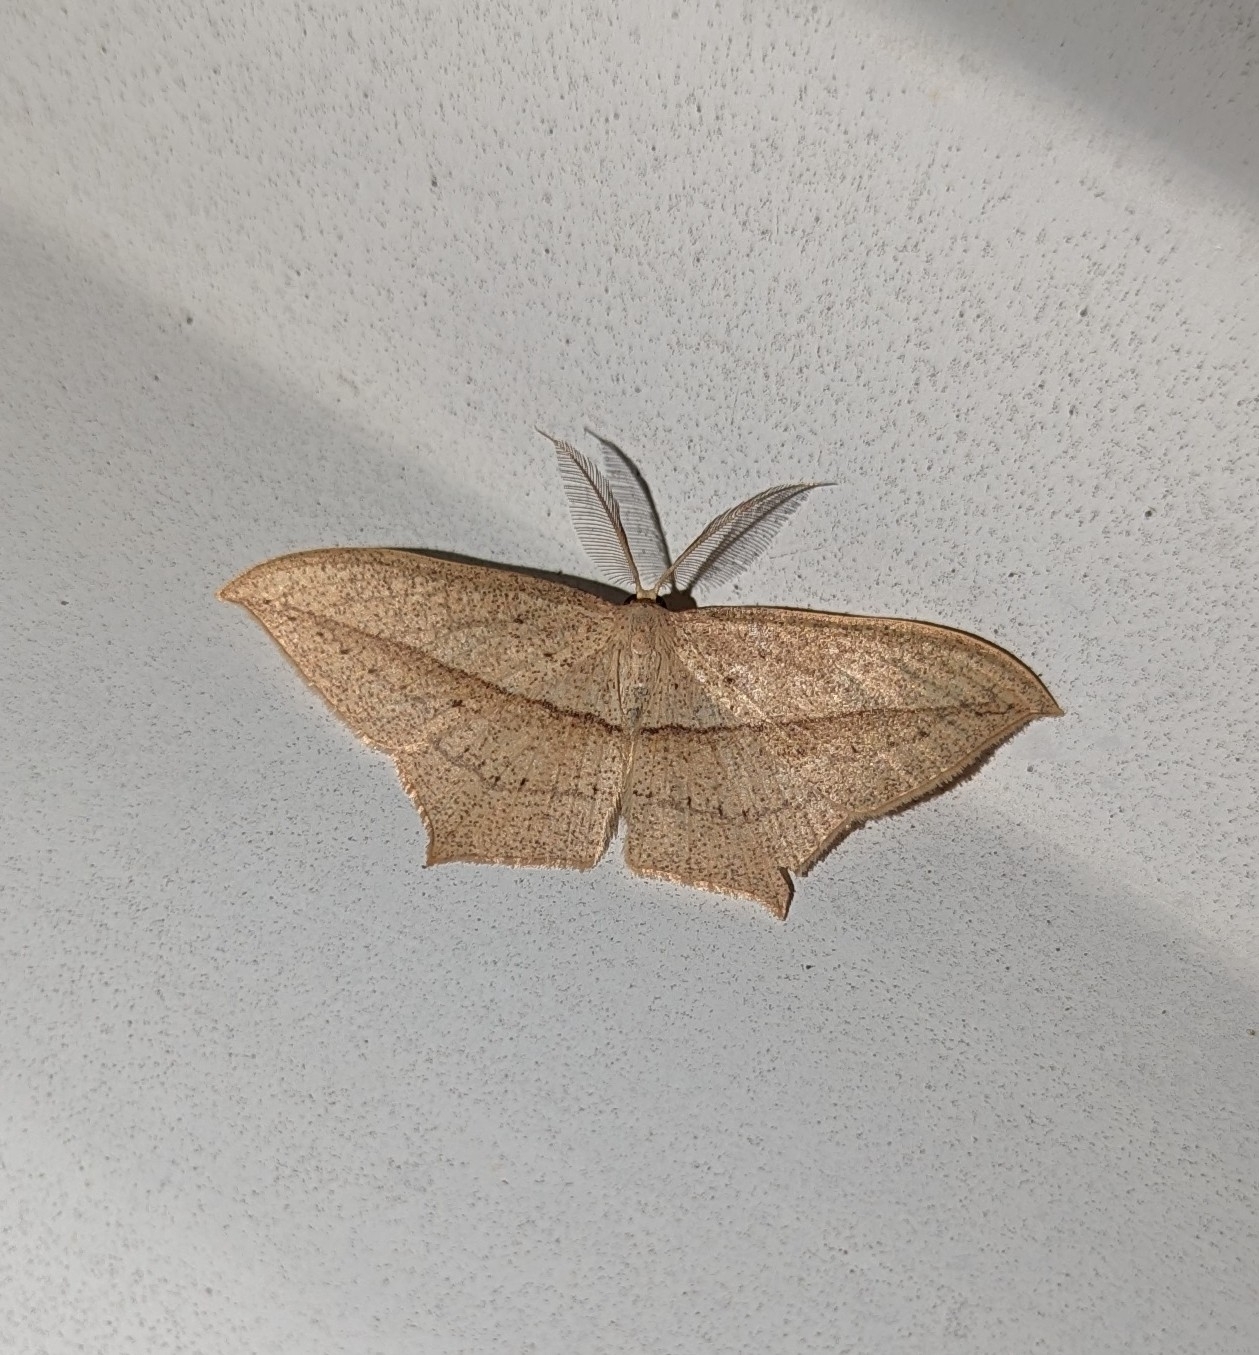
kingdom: Animalia
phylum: Arthropoda
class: Insecta
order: Lepidoptera
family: Geometridae
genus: Timandra
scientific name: Timandra stueningi
